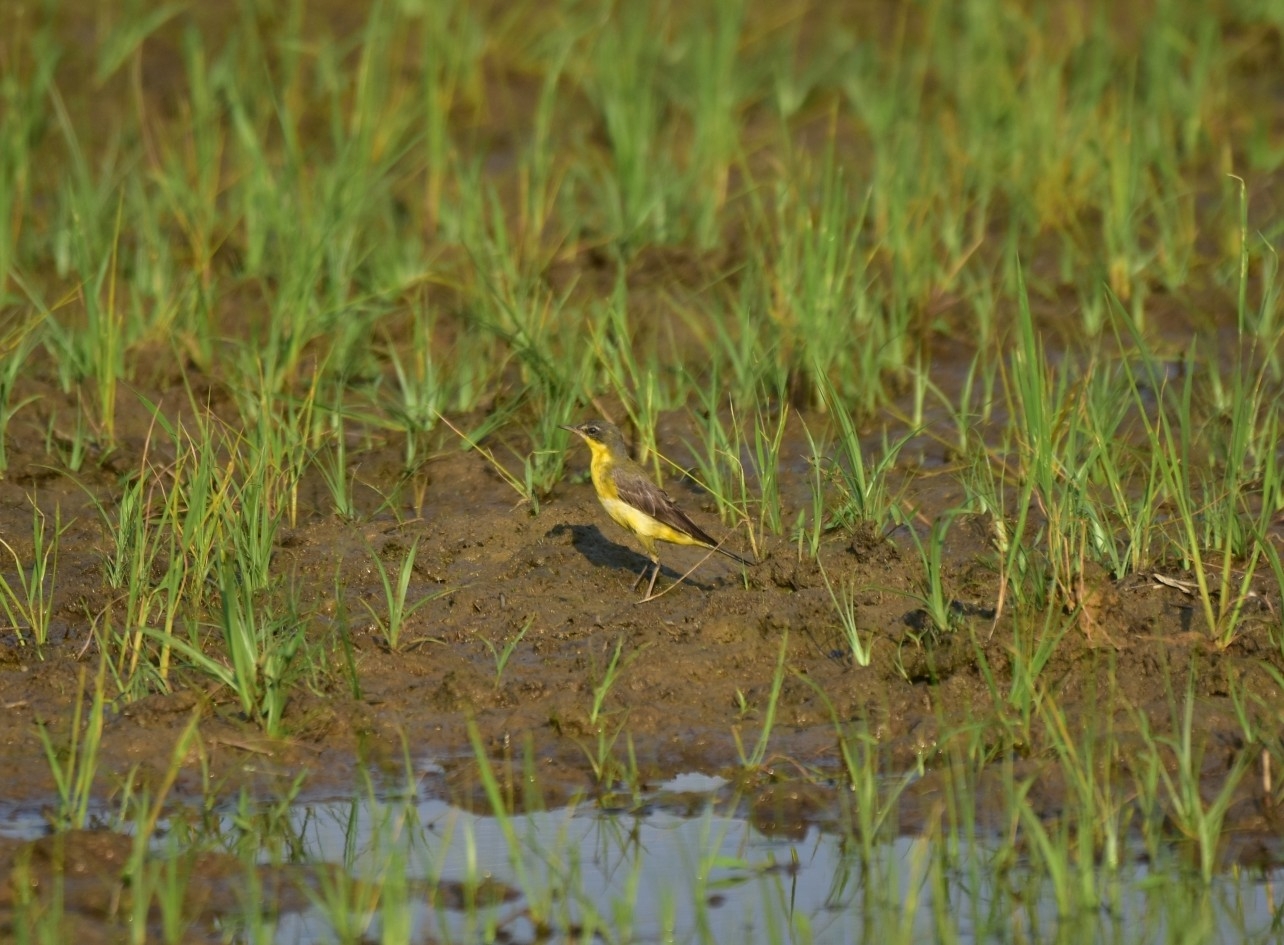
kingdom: Animalia
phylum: Chordata
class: Aves
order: Passeriformes
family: Motacillidae
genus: Motacilla
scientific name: Motacilla flava
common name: Western yellow wagtail
